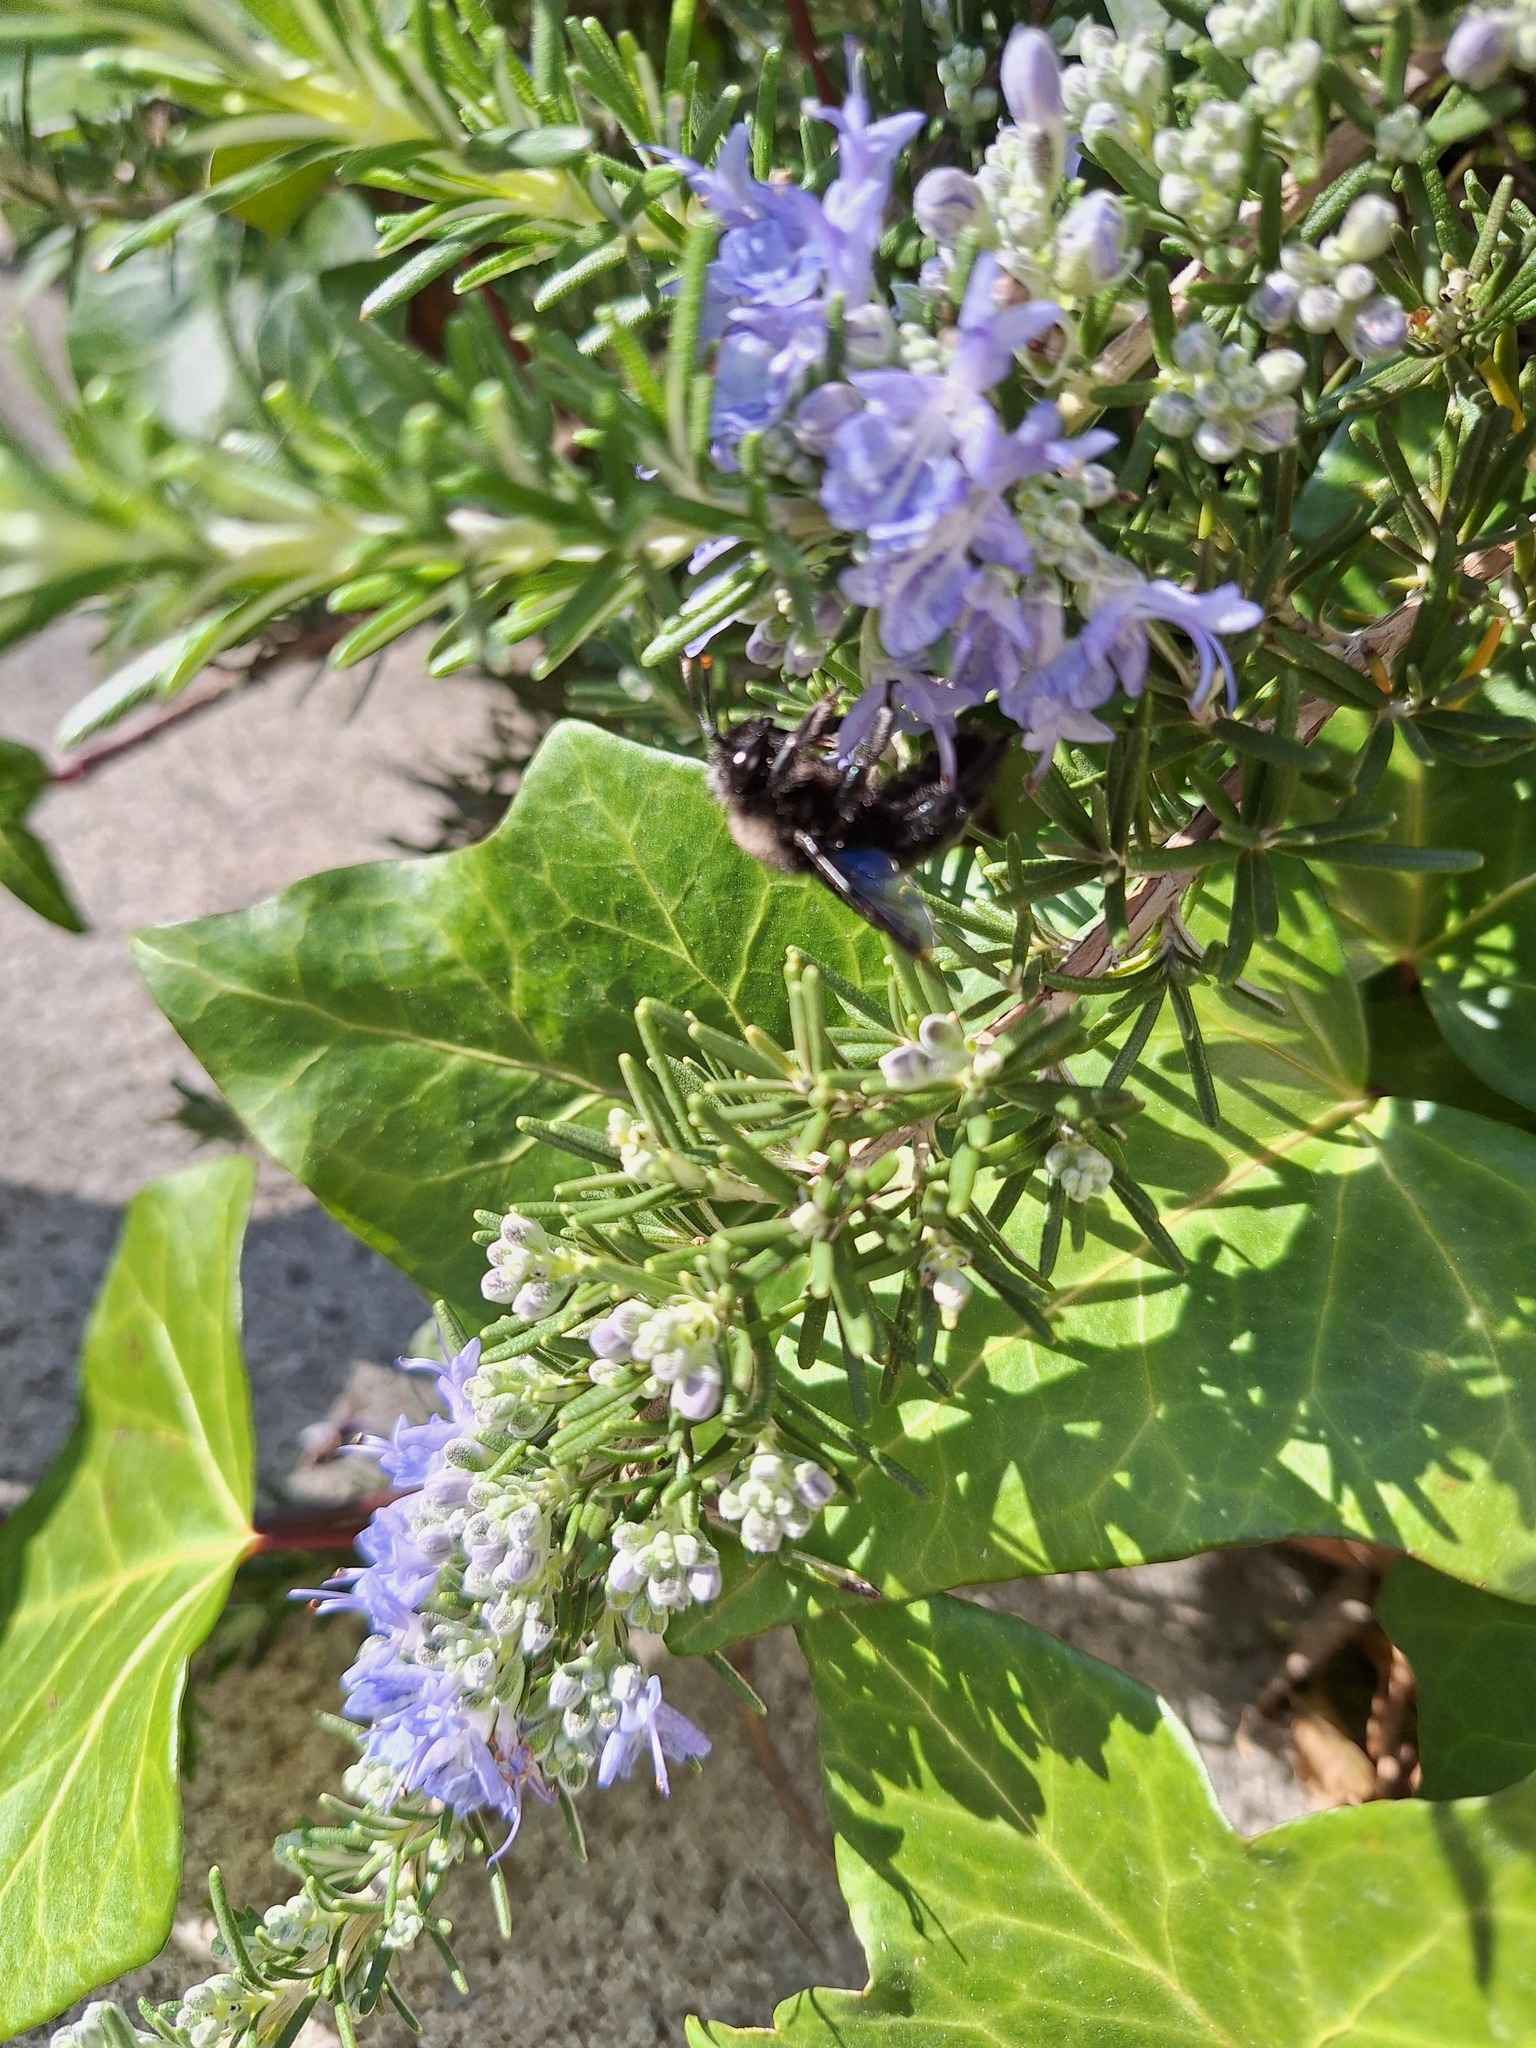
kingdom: Animalia
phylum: Arthropoda
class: Insecta
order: Hymenoptera
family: Apidae
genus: Xylocopa
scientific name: Xylocopa violacea
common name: Violet carpenter bee
